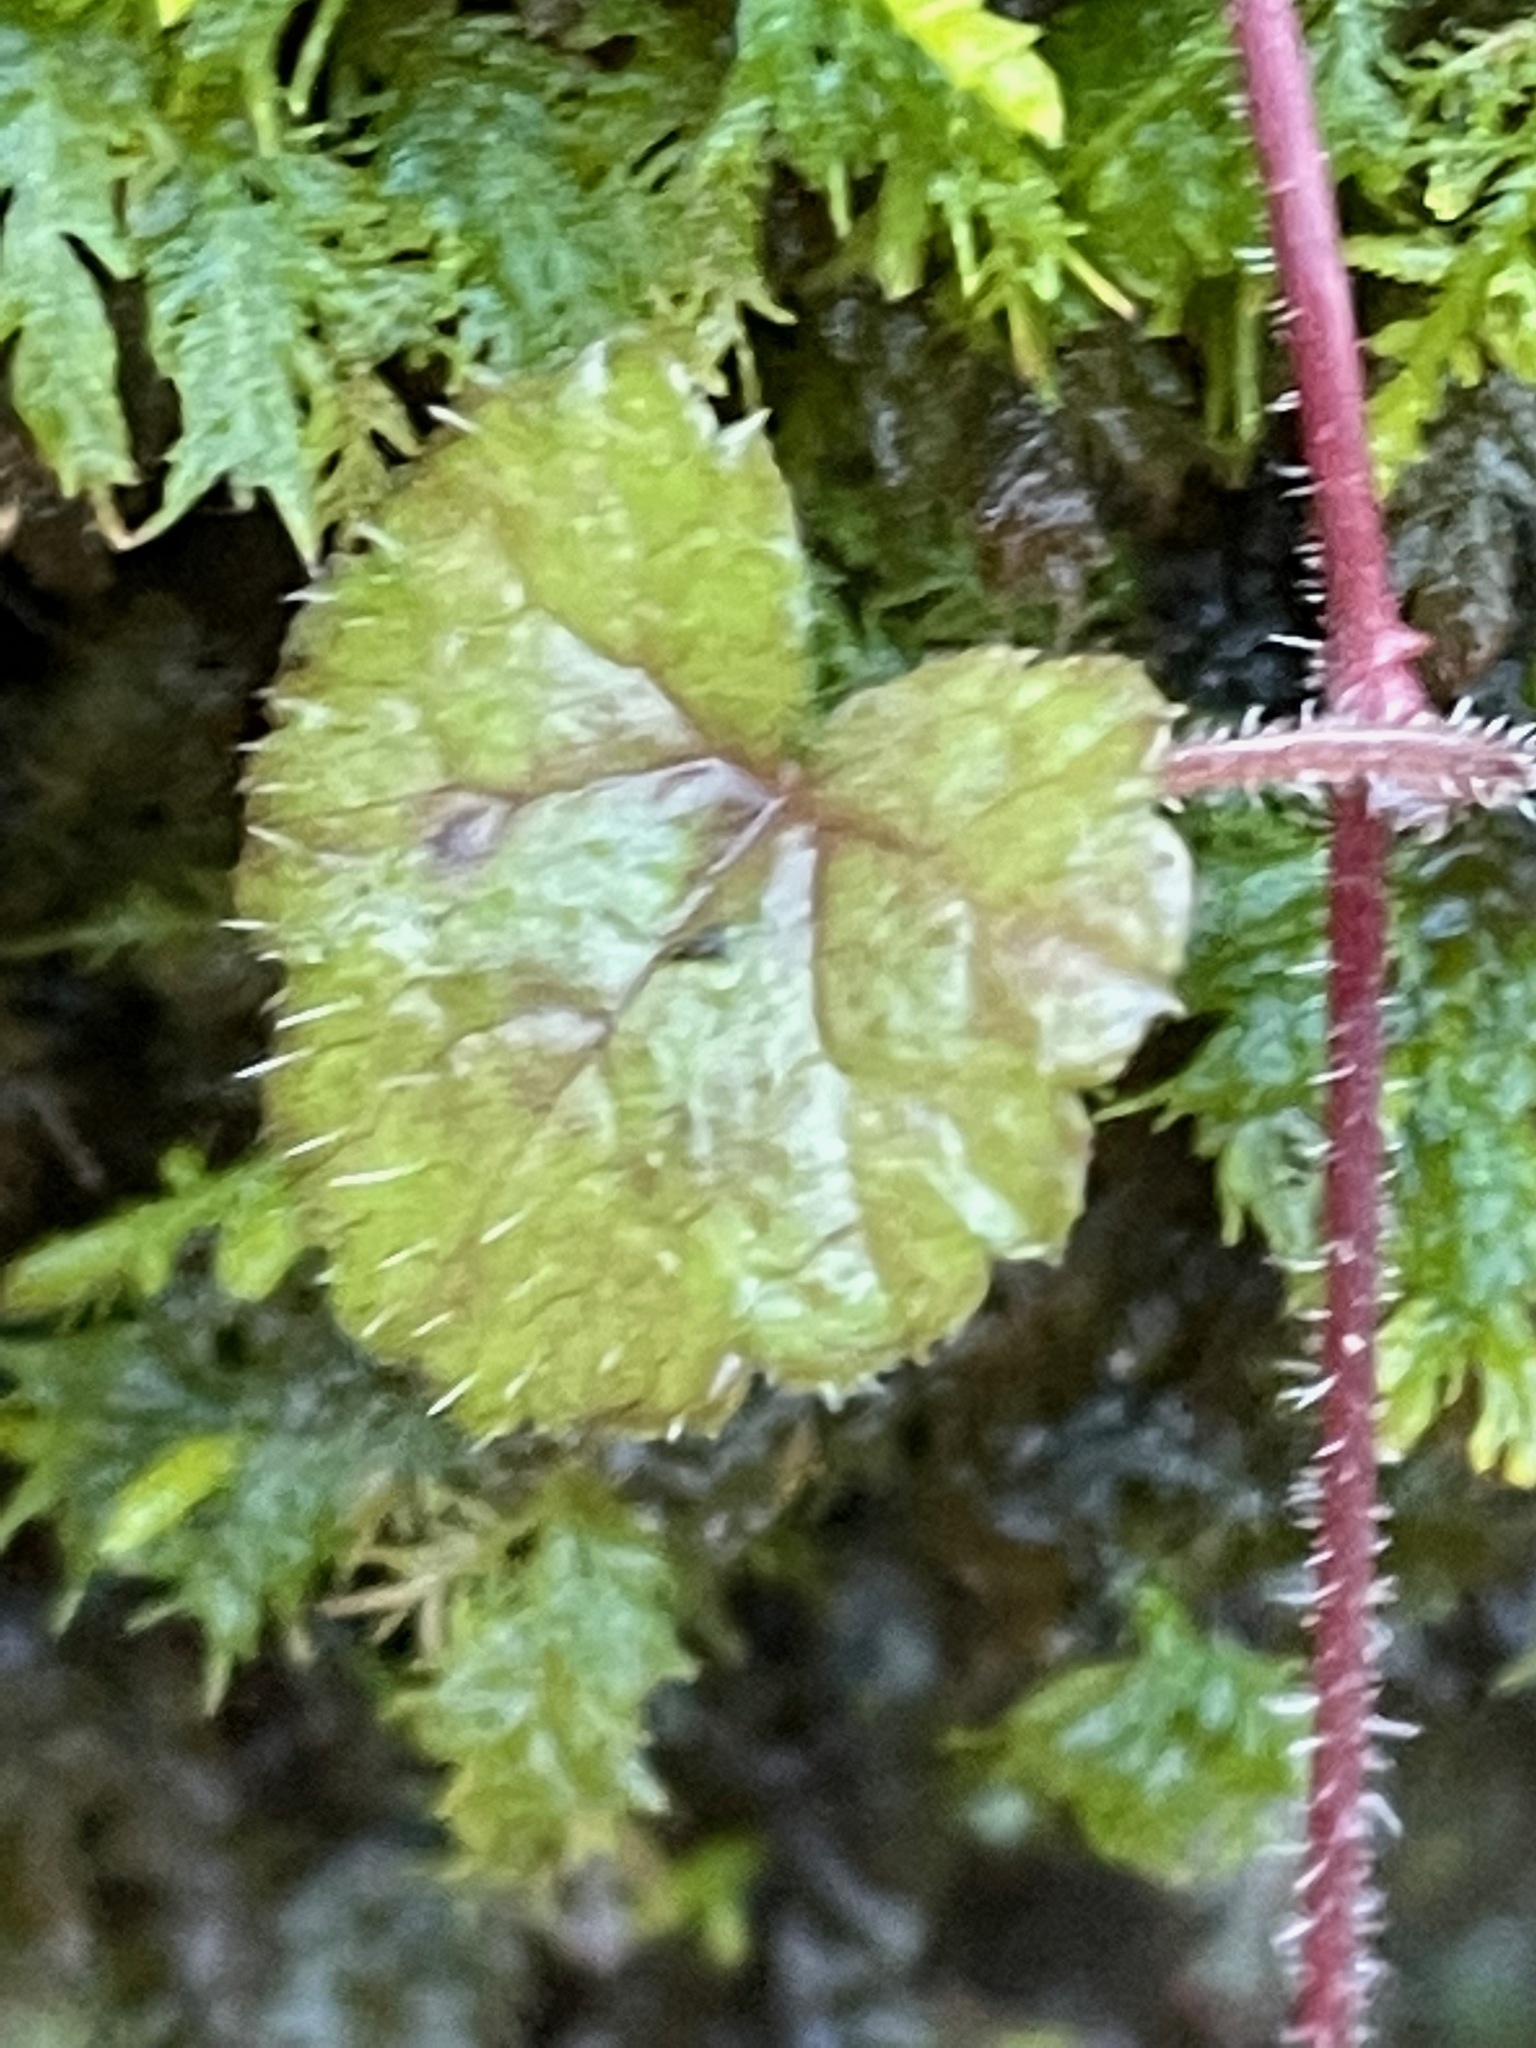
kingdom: Plantae
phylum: Tracheophyta
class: Magnoliopsida
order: Saxifragales
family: Saxifragaceae
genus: Tiarella
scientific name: Tiarella stolonifera
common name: Stoloniferous foamflower
